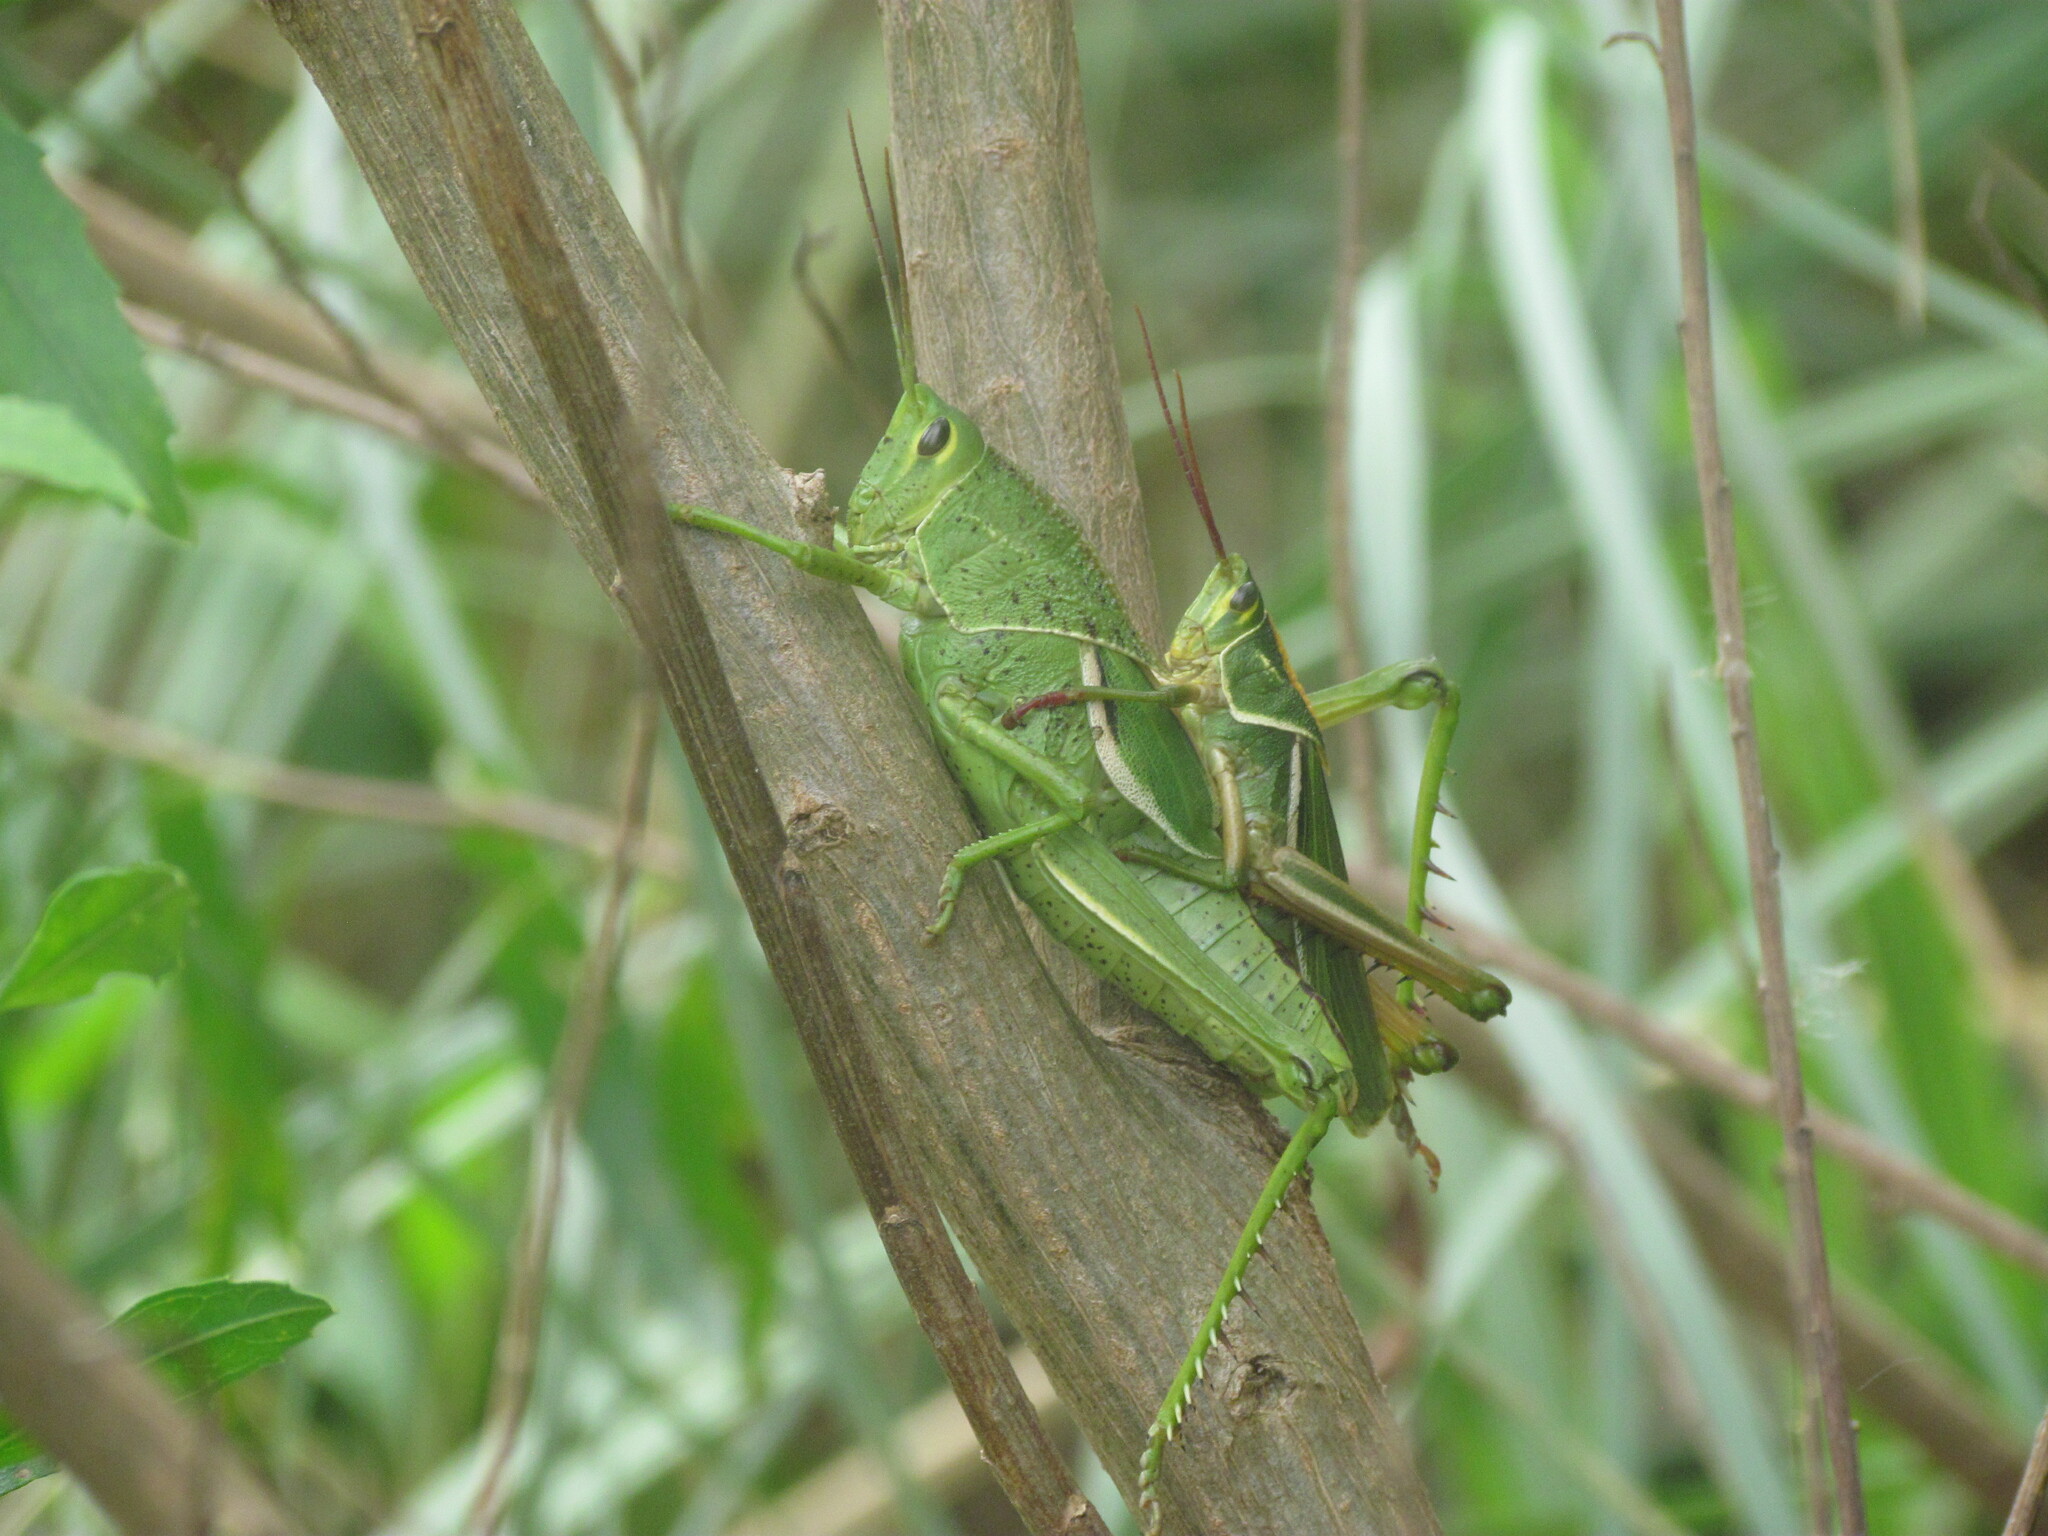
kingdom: Animalia
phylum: Arthropoda
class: Insecta
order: Orthoptera
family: Romaleidae
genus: Staleochlora
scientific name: Staleochlora viridicata
